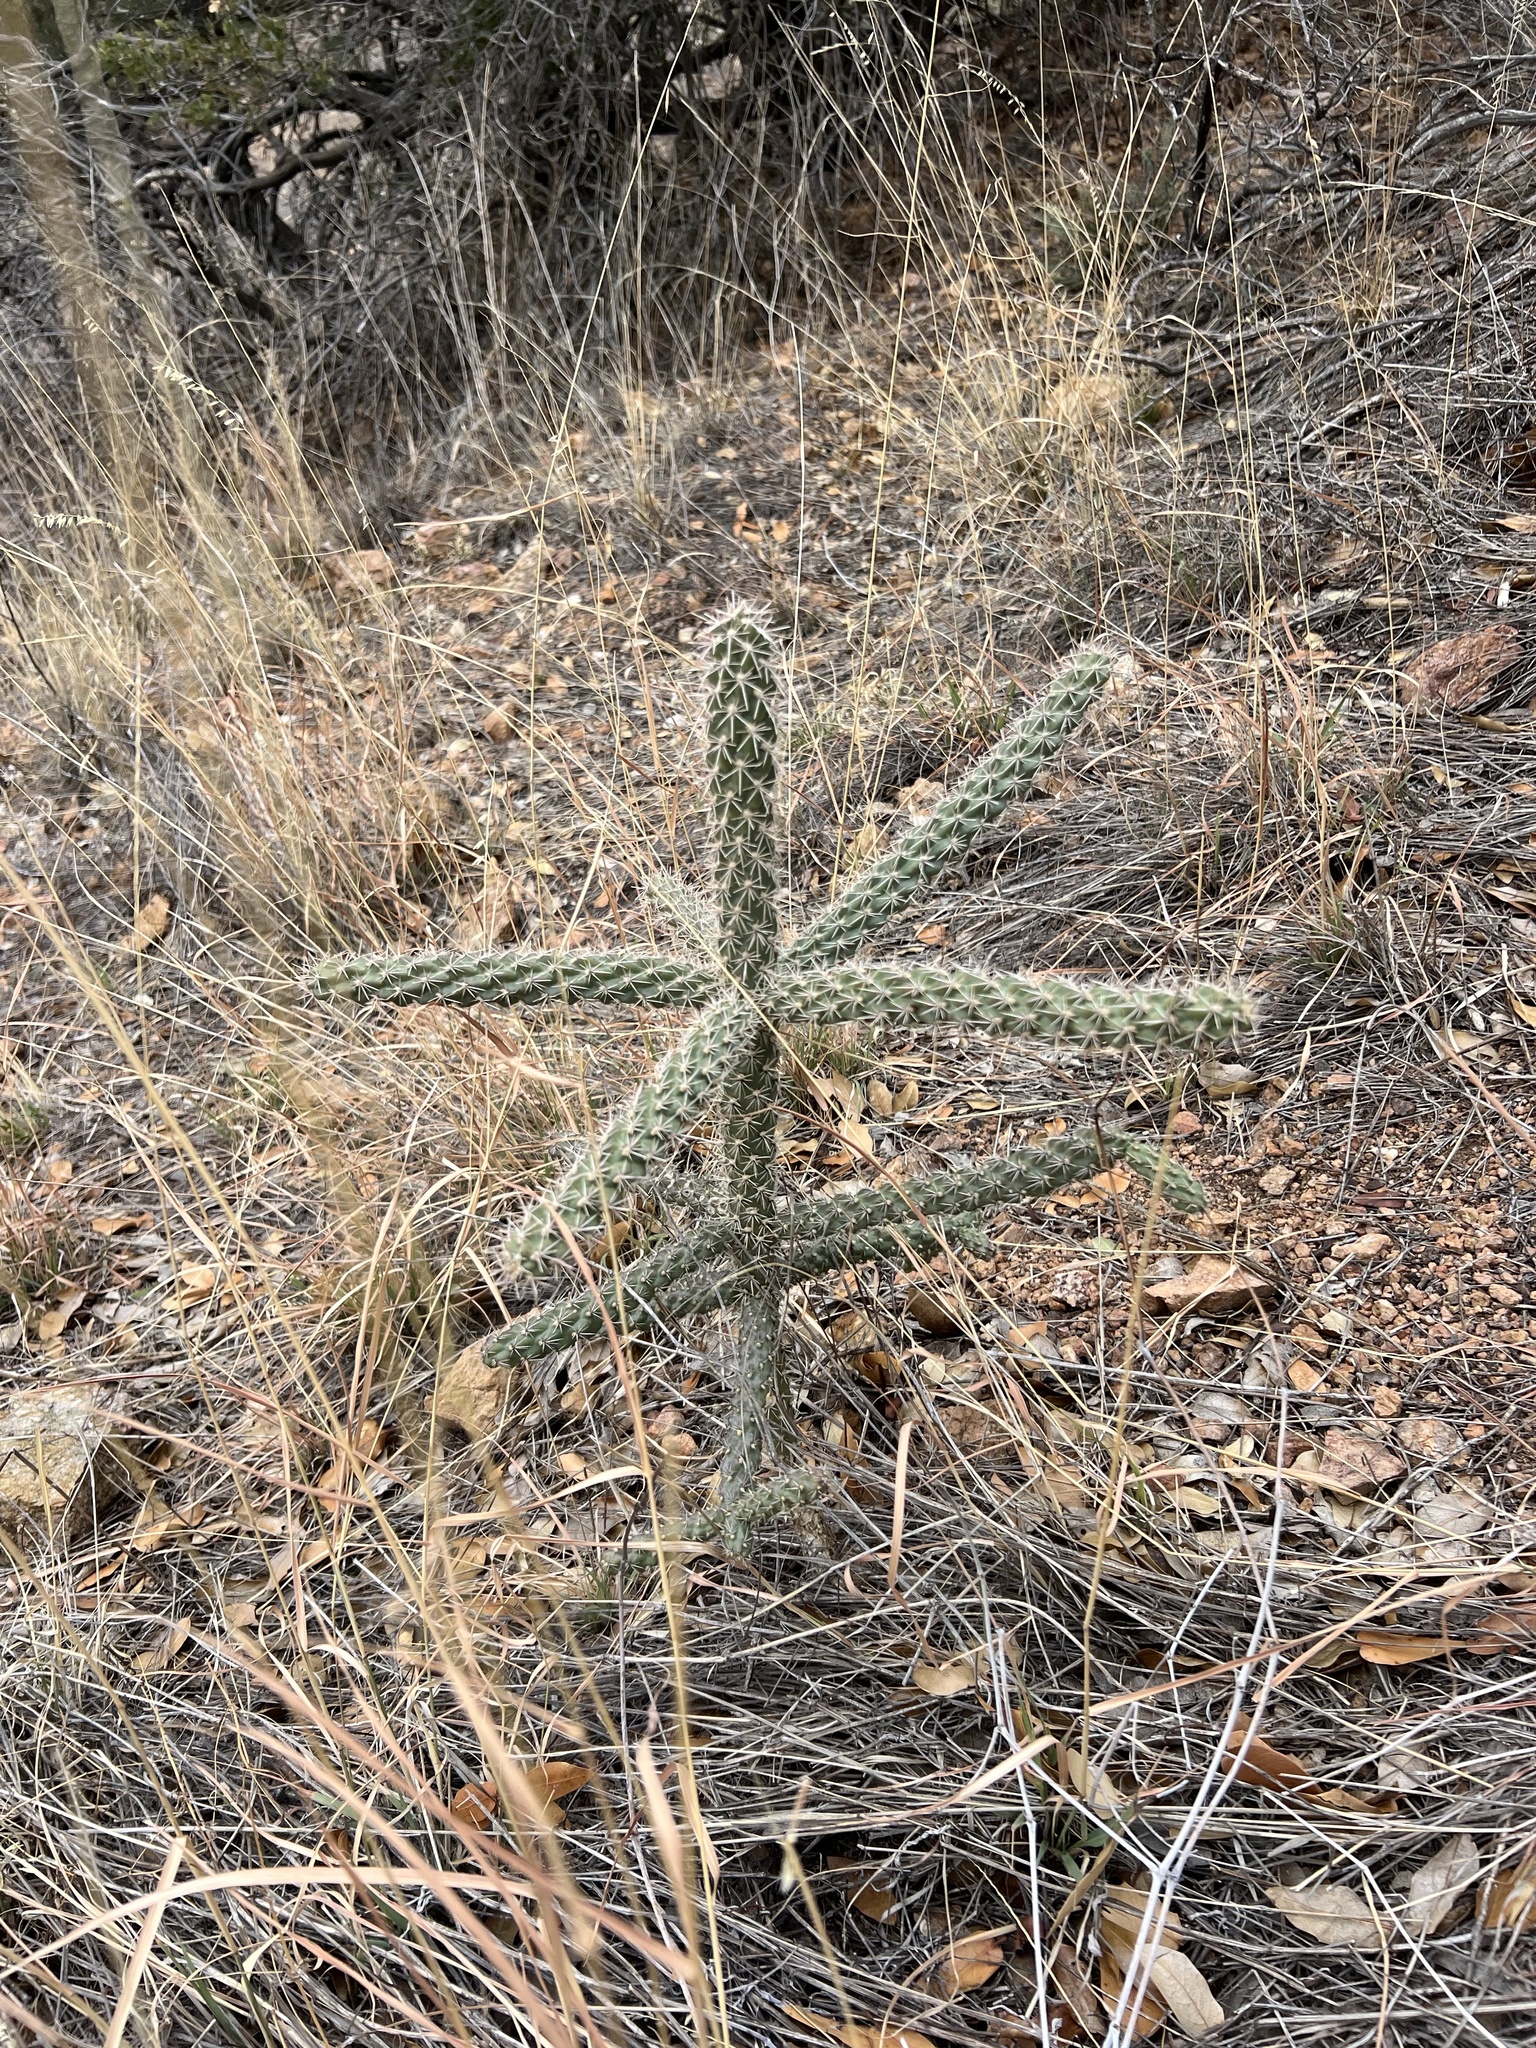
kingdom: Plantae
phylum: Tracheophyta
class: Magnoliopsida
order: Caryophyllales
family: Cactaceae
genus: Cylindropuntia
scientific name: Cylindropuntia imbricata
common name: Candelabrum cactus
